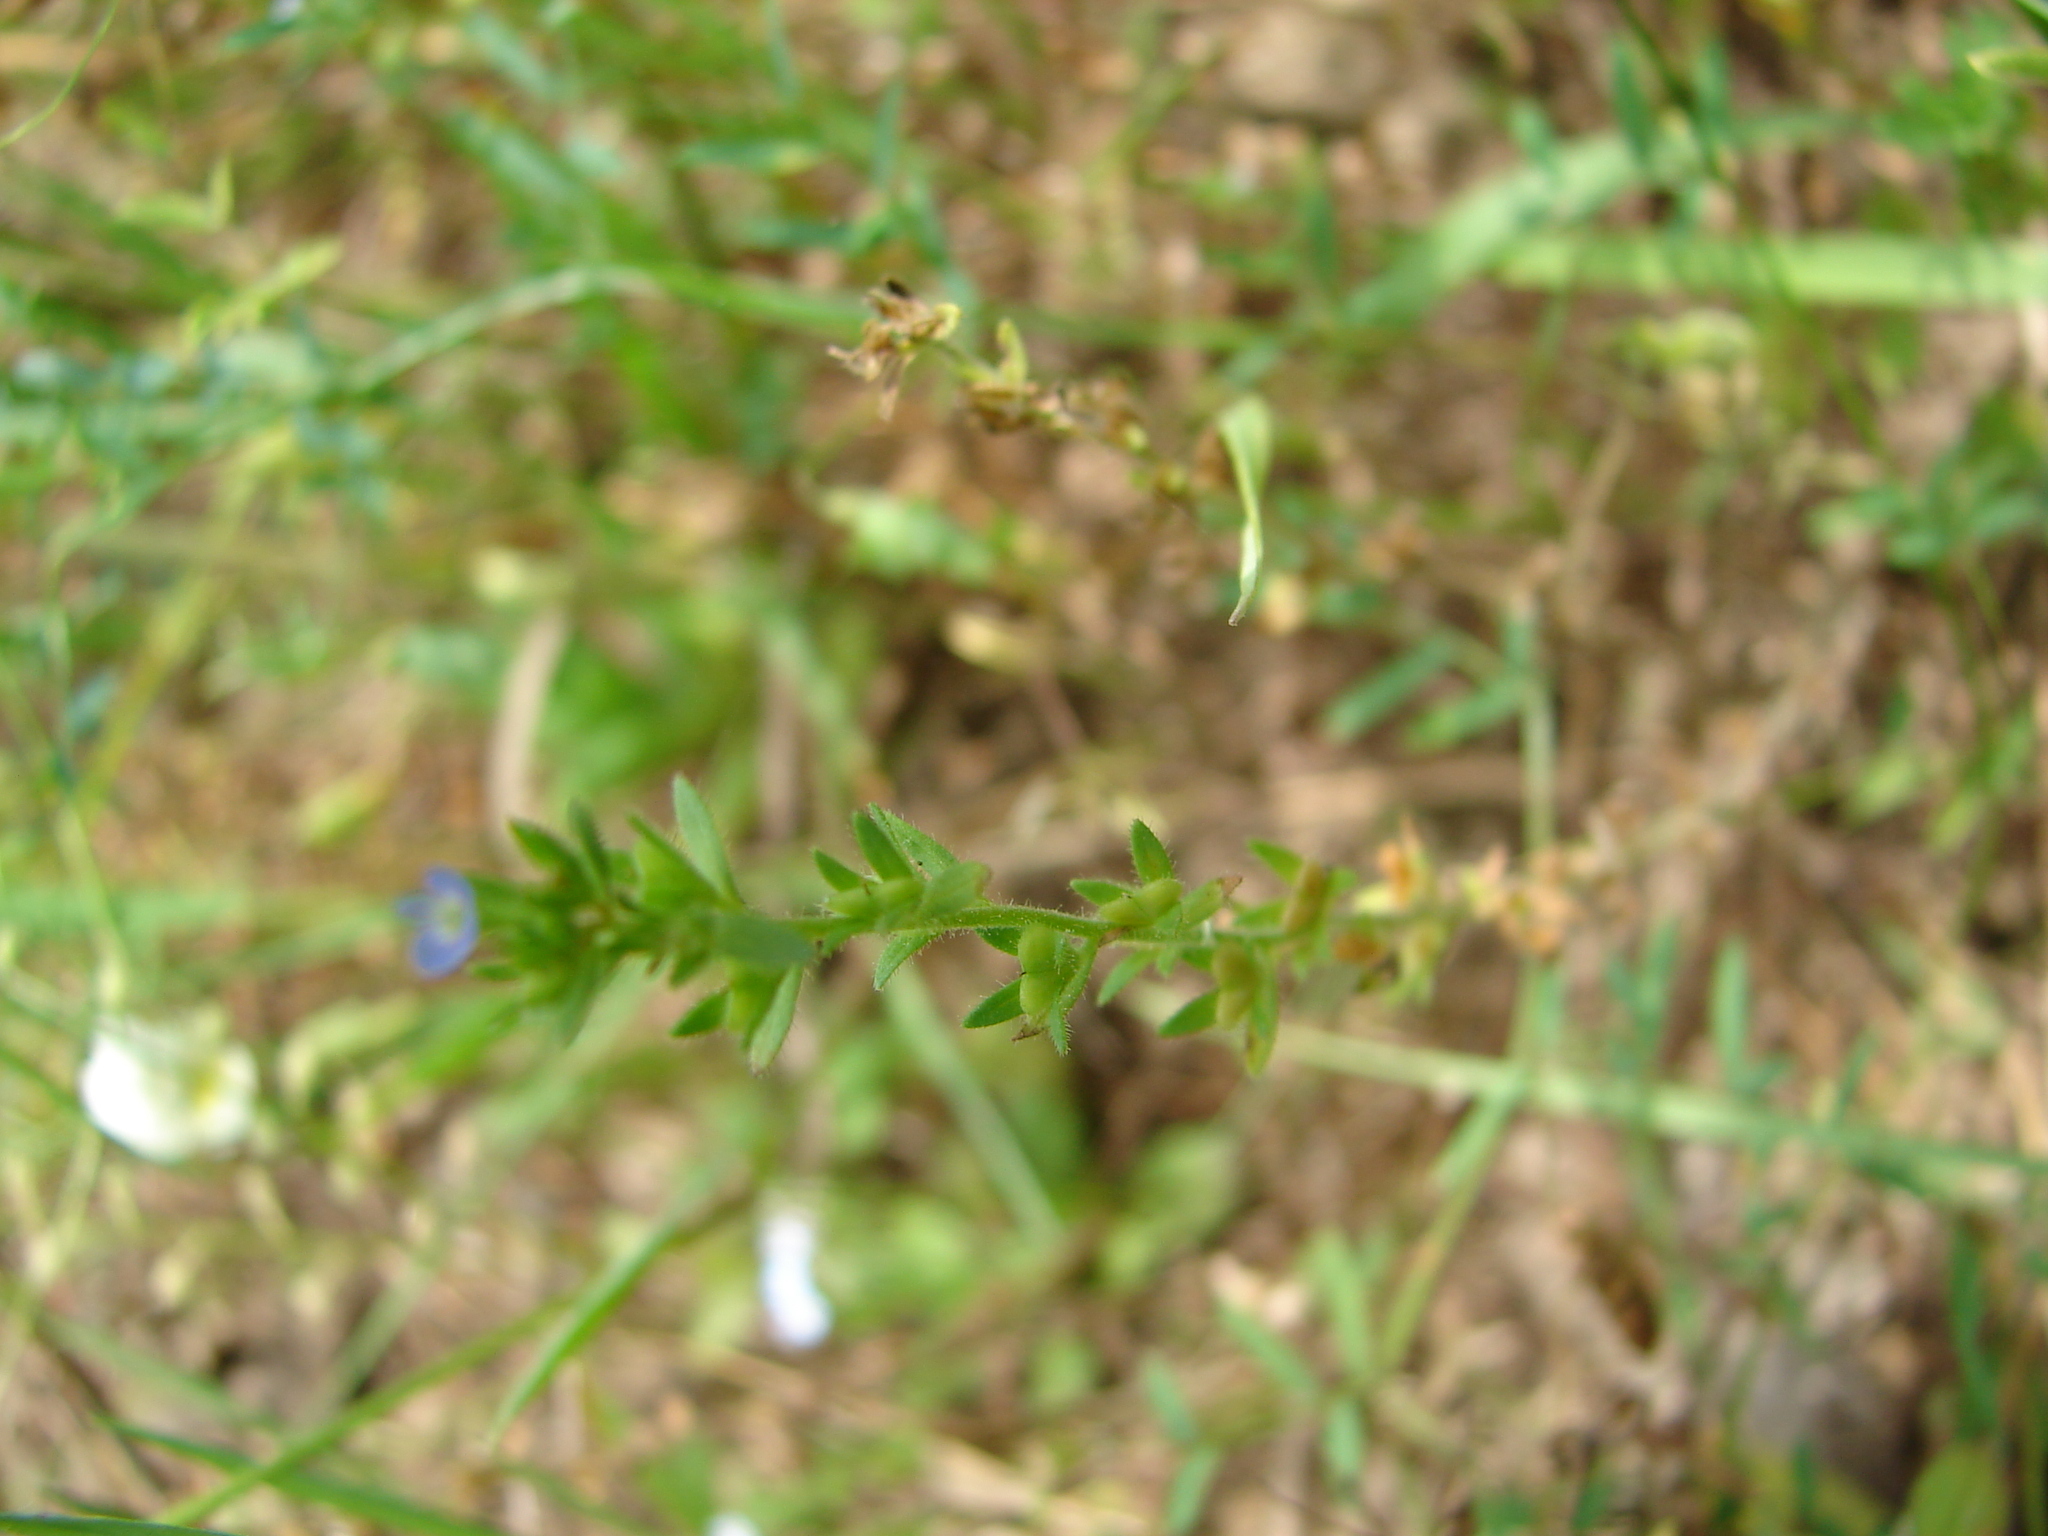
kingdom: Plantae
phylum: Tracheophyta
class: Magnoliopsida
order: Lamiales
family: Plantaginaceae
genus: Veronica
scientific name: Veronica arvensis
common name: Corn speedwell
